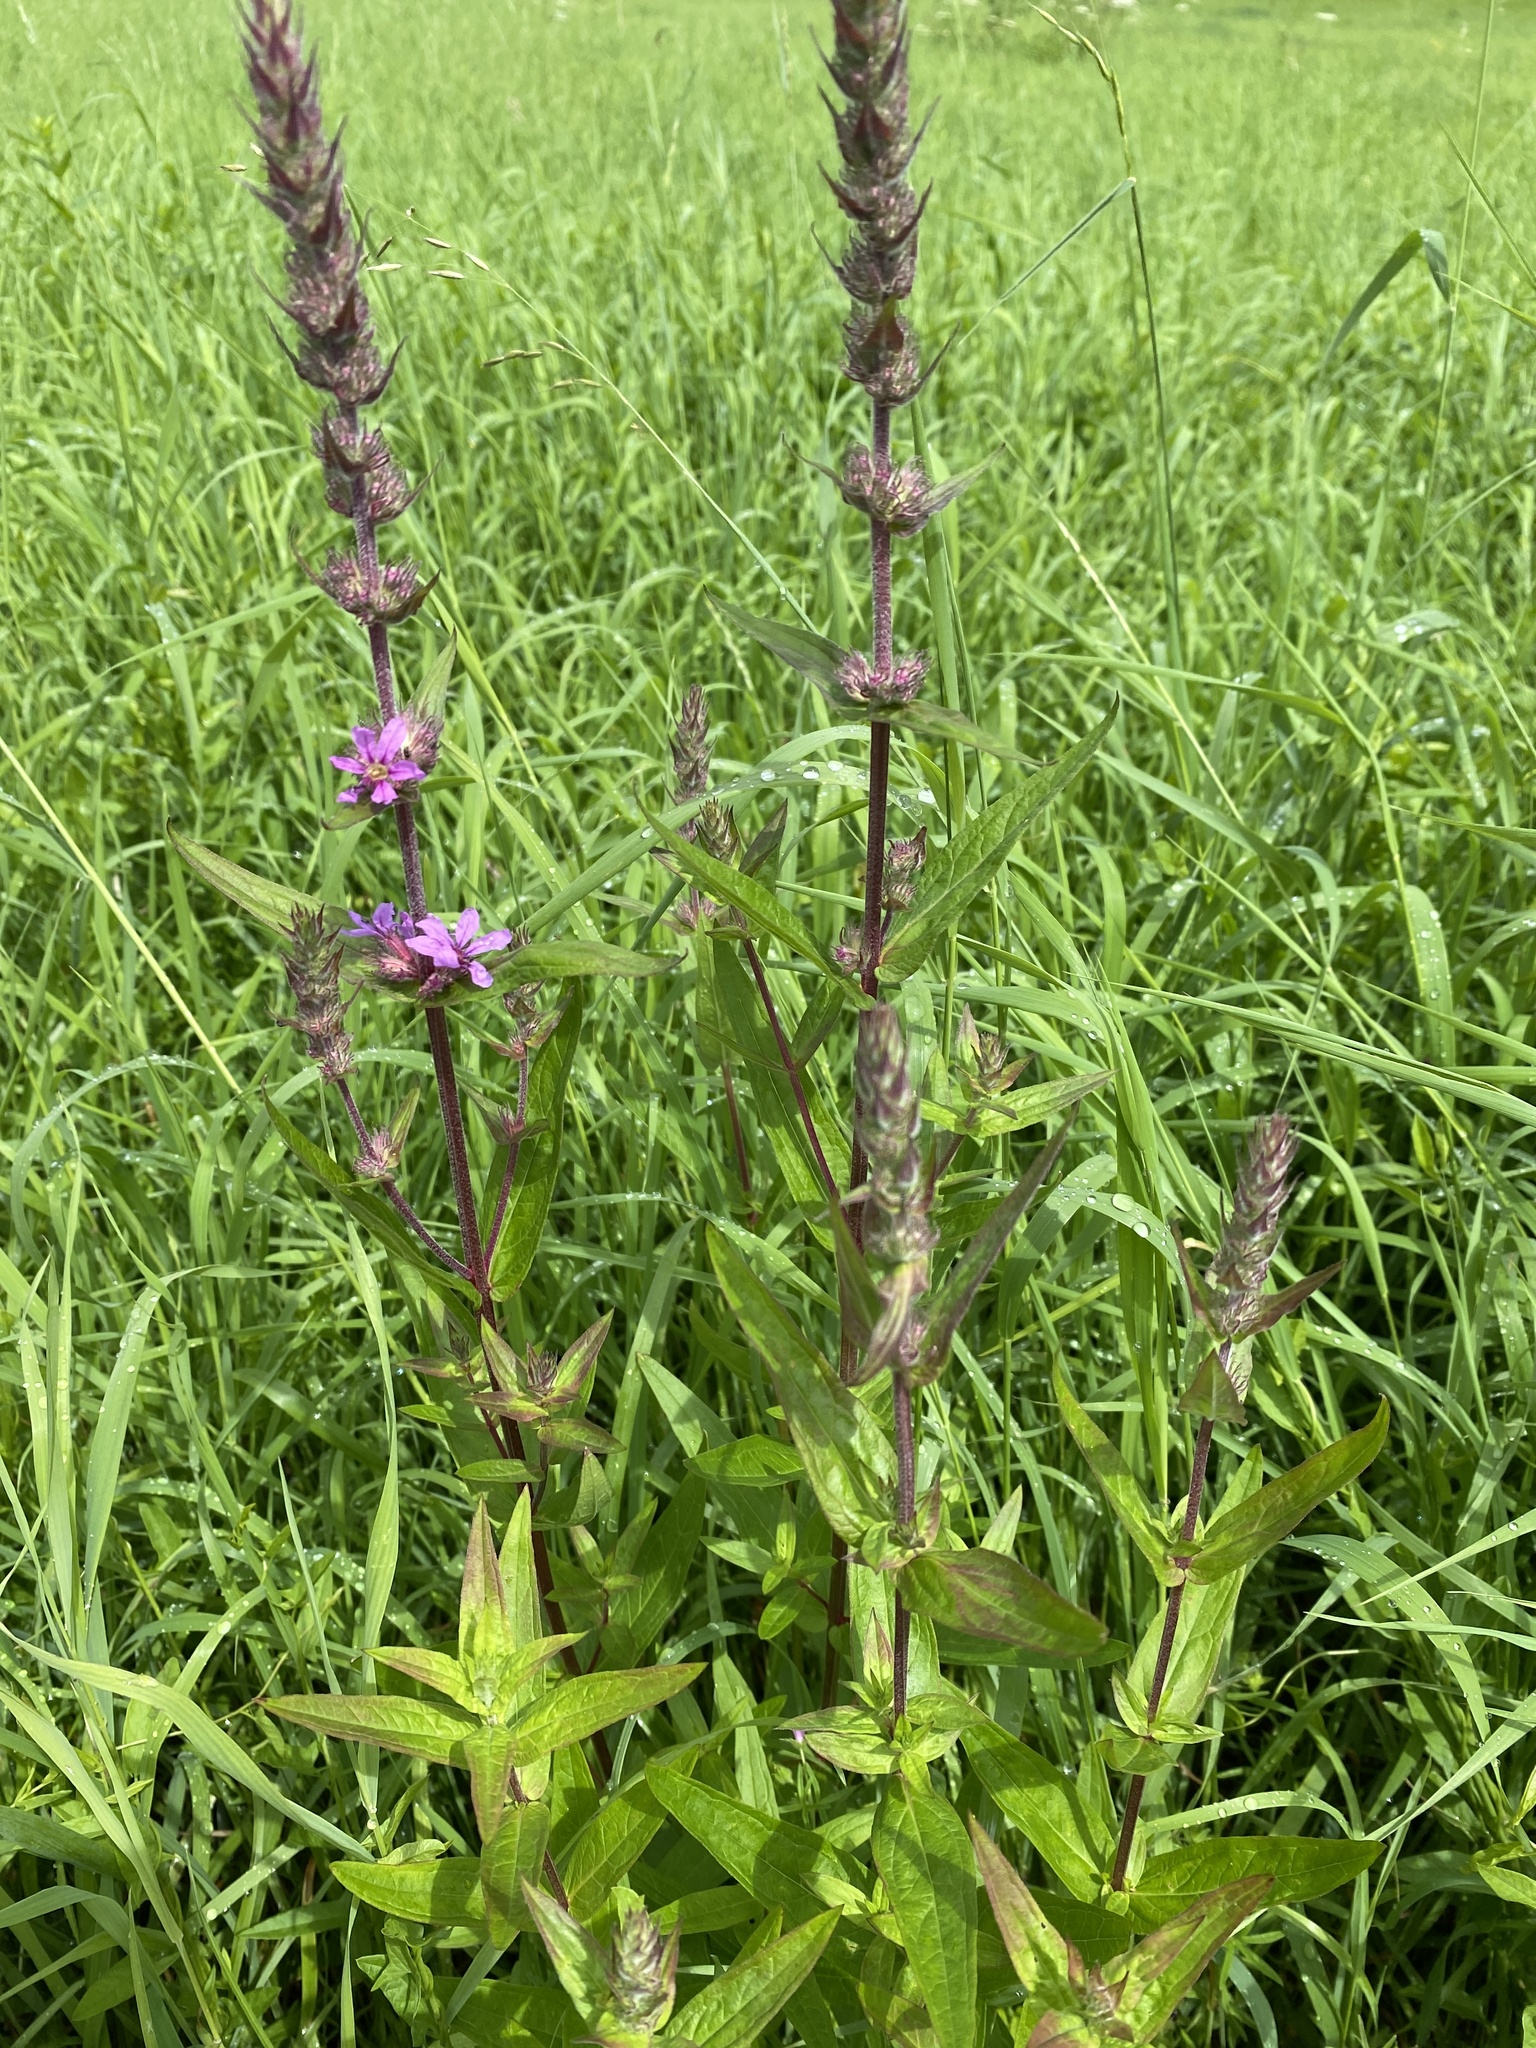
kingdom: Plantae
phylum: Tracheophyta
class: Magnoliopsida
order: Myrtales
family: Lythraceae
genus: Lythrum
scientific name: Lythrum salicaria
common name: Purple loosestrife
